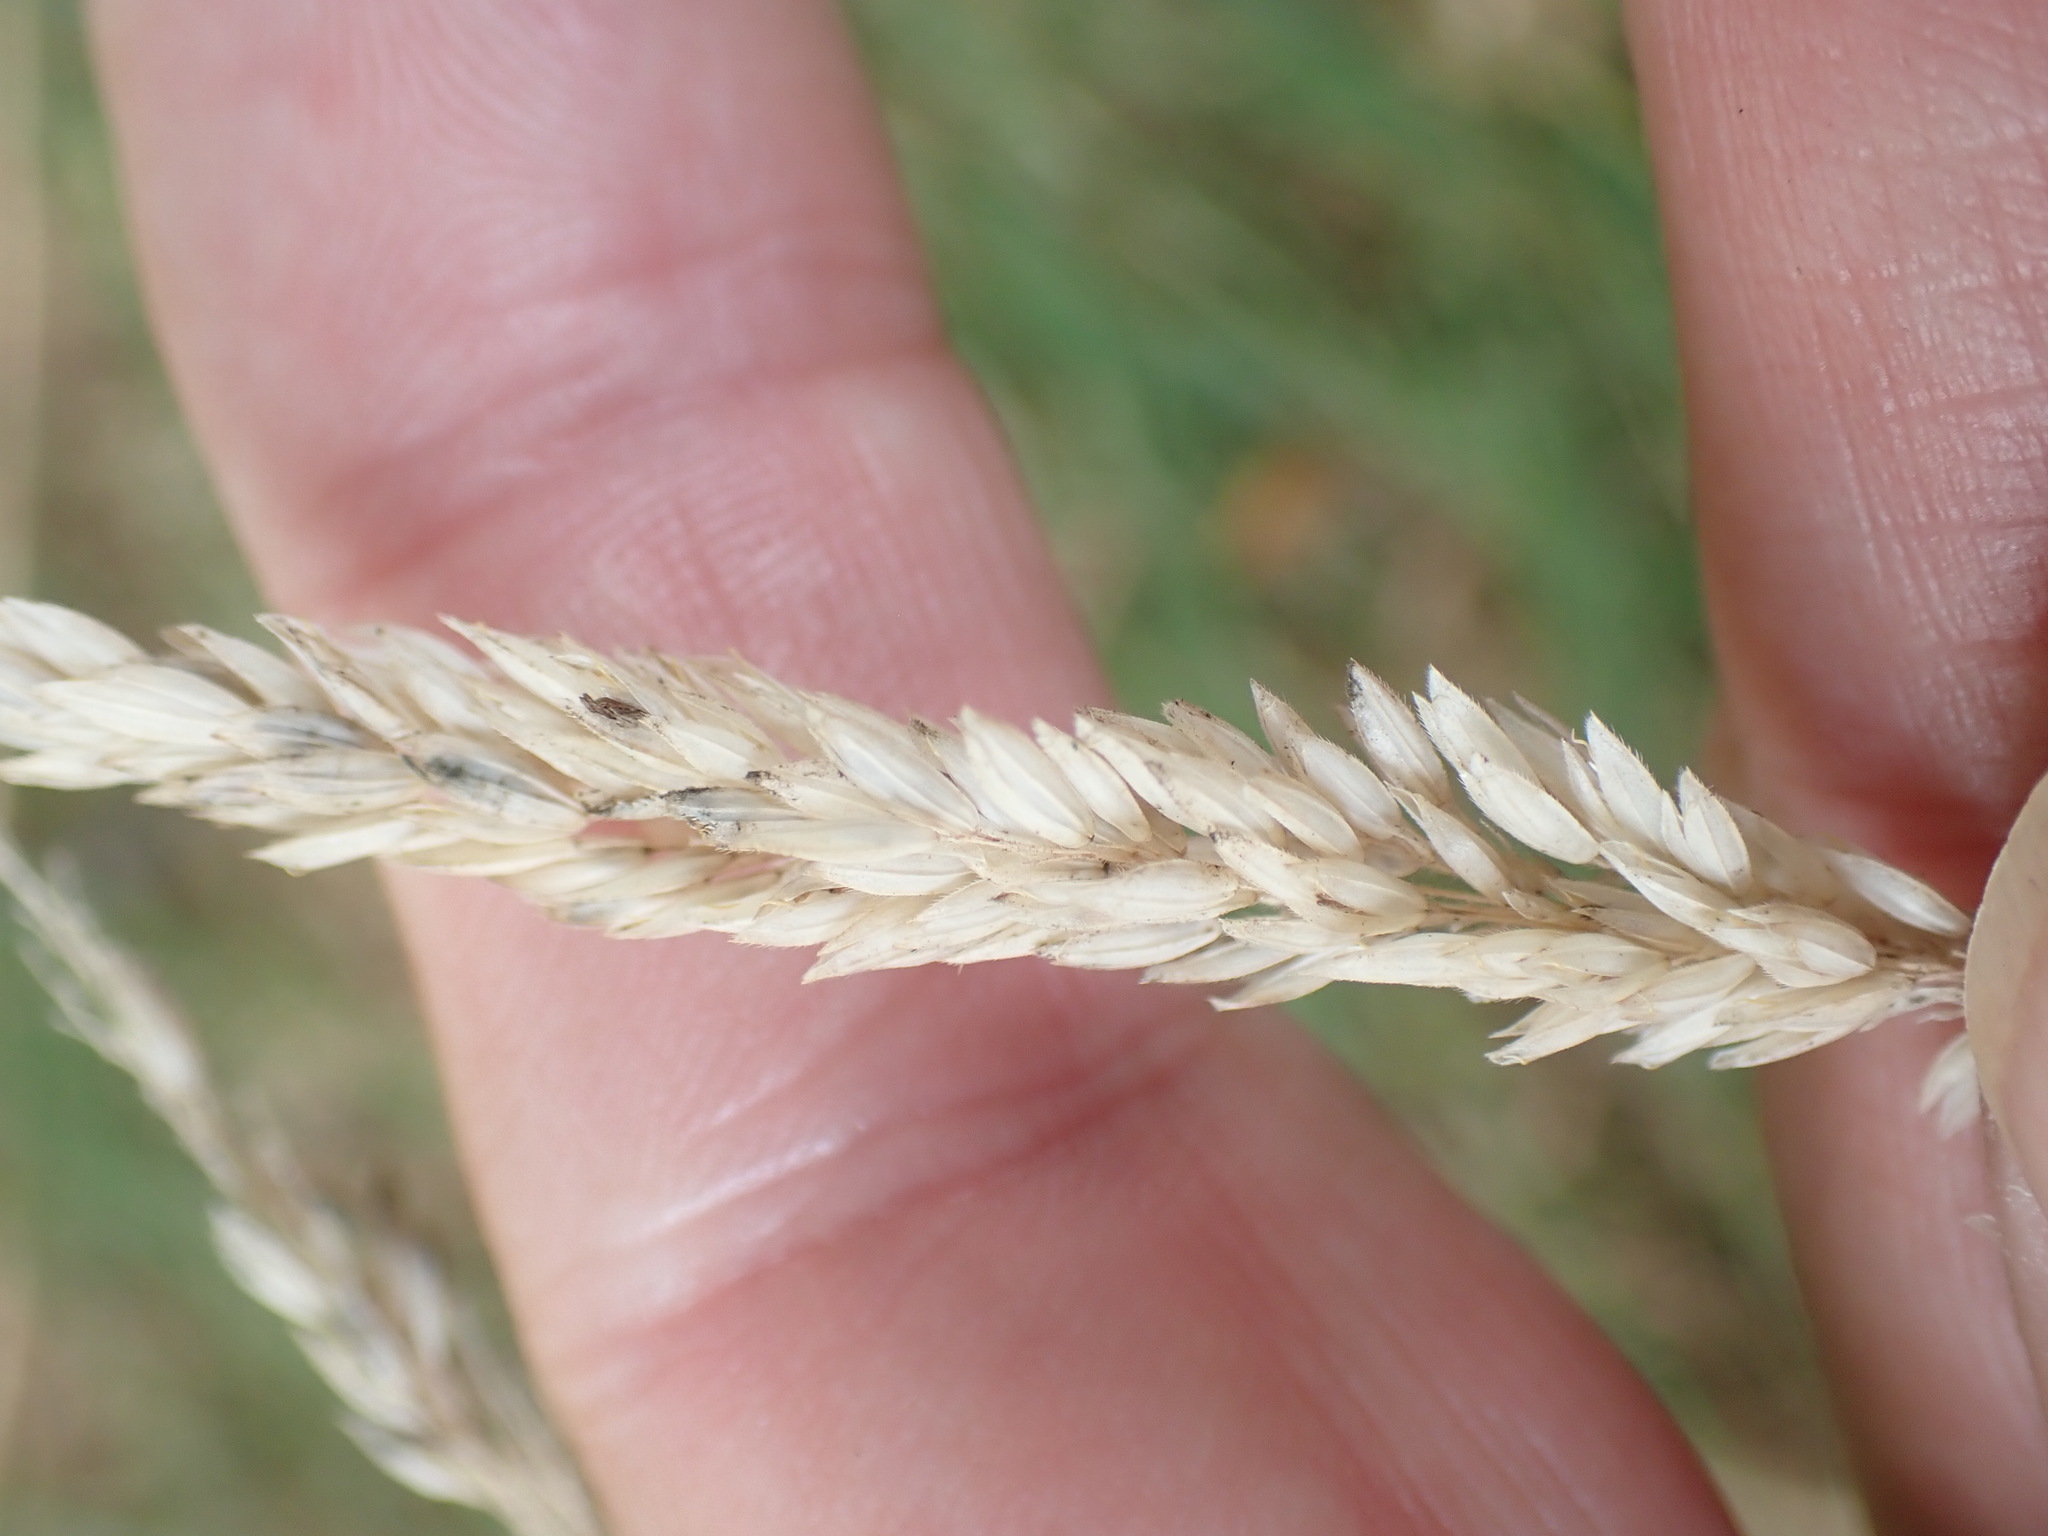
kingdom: Plantae
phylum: Tracheophyta
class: Liliopsida
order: Poales
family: Poaceae
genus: Holcus
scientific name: Holcus lanatus
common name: Yorkshire-fog
